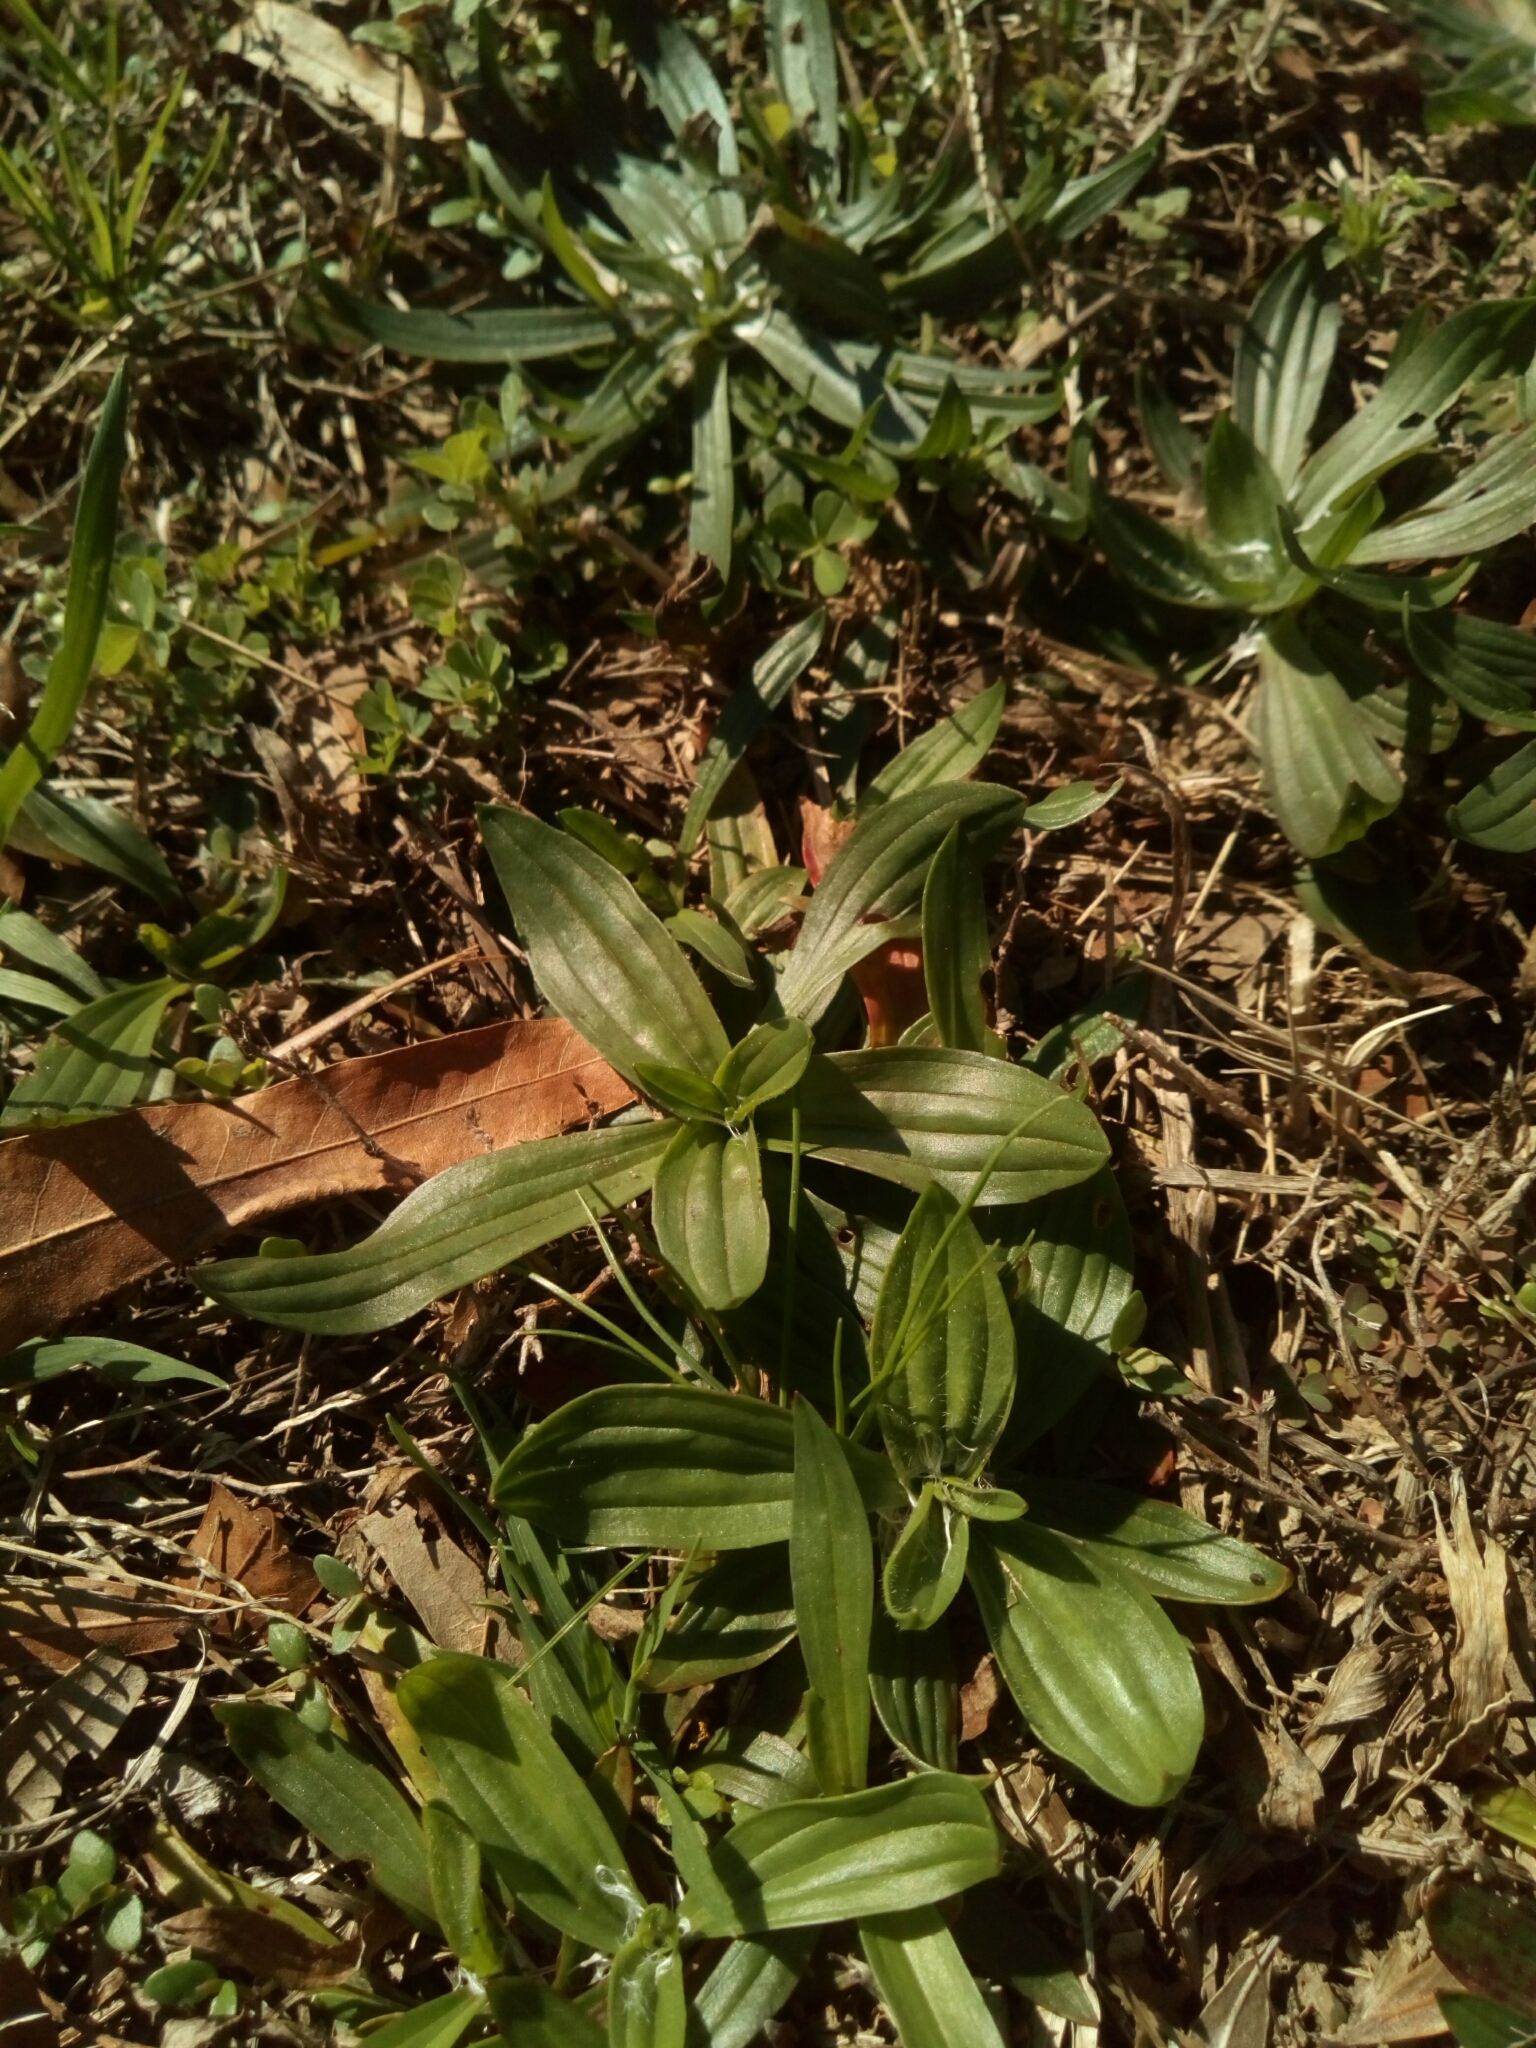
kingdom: Plantae
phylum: Tracheophyta
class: Magnoliopsida
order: Lamiales
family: Plantaginaceae
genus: Plantago
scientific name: Plantago lanceolata
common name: Ribwort plantain
